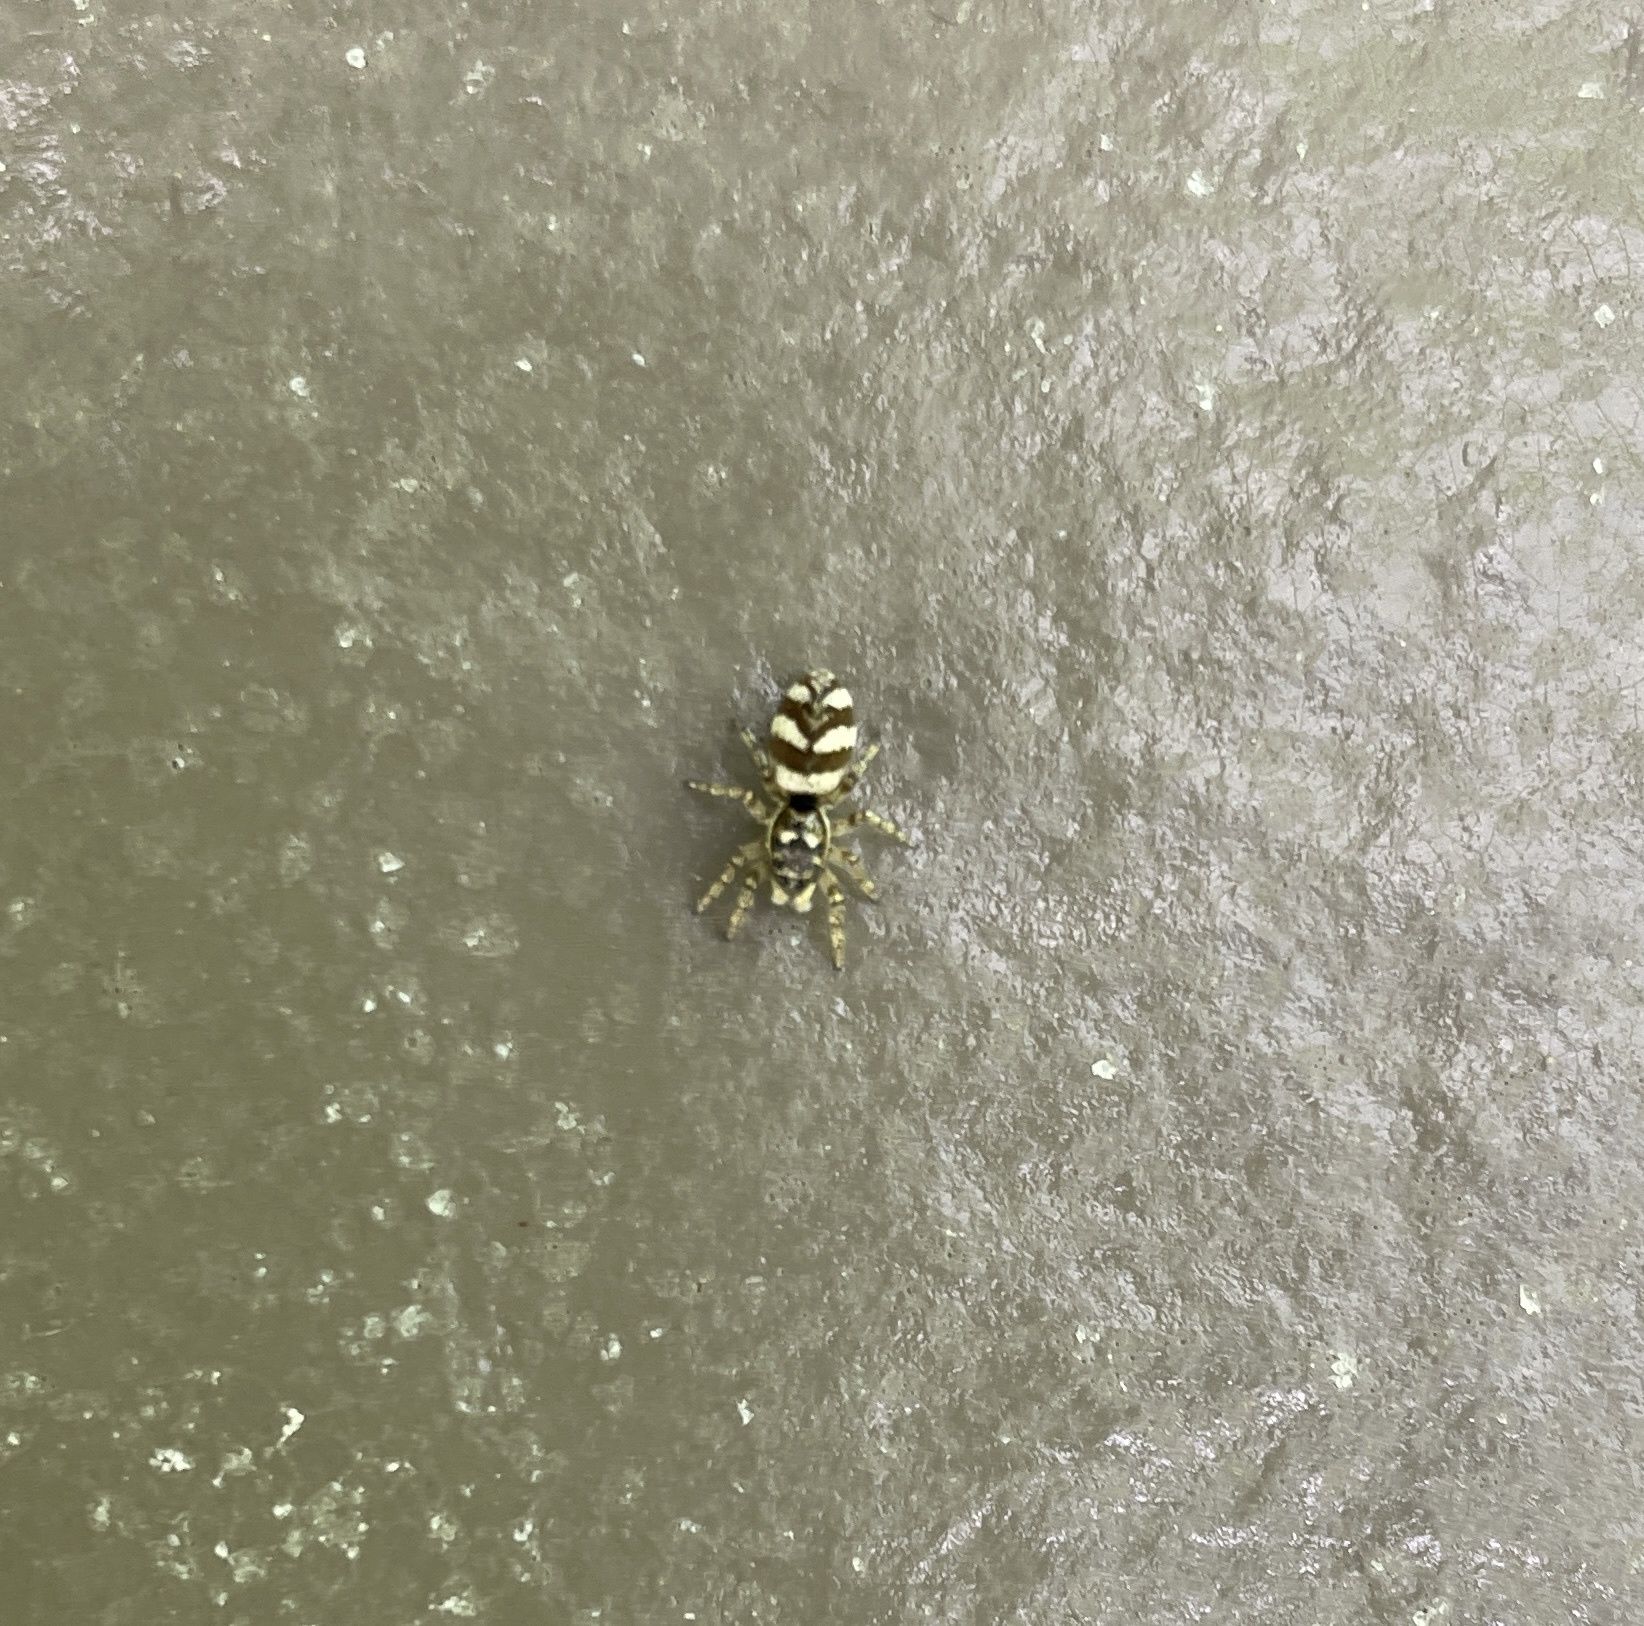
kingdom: Animalia
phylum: Arthropoda
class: Arachnida
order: Araneae
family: Salticidae
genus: Salticus
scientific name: Salticus scenicus
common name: Zebra jumper
